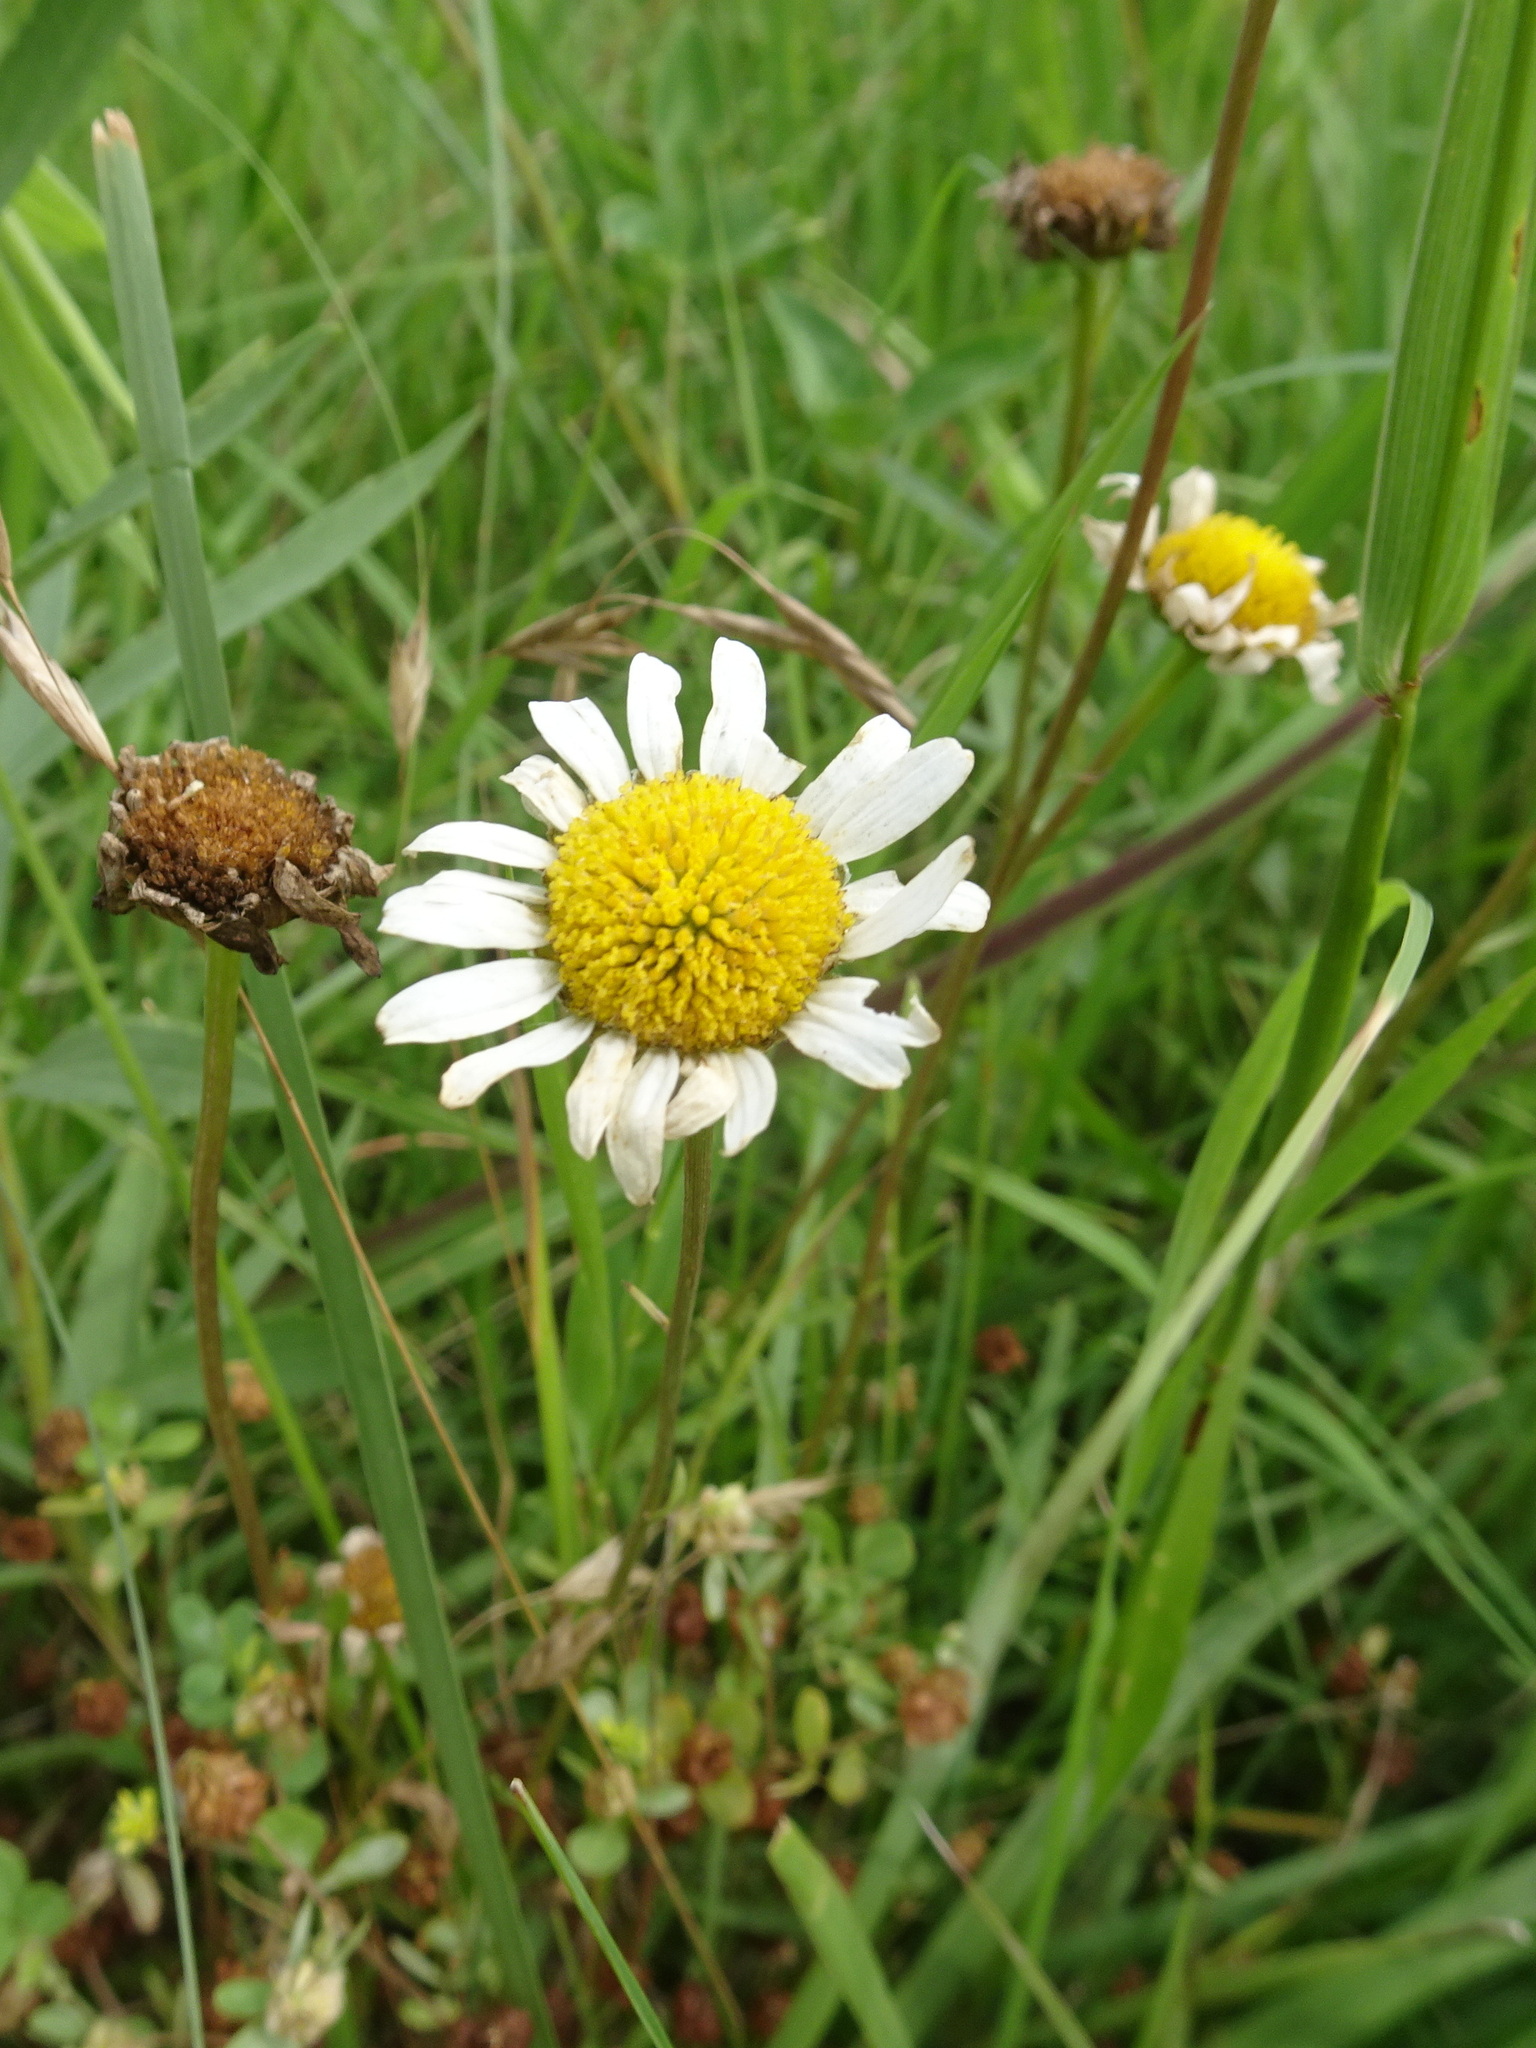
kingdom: Plantae
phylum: Tracheophyta
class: Magnoliopsida
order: Asterales
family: Asteraceae
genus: Leucanthemum
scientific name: Leucanthemum vulgare
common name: Oxeye daisy
